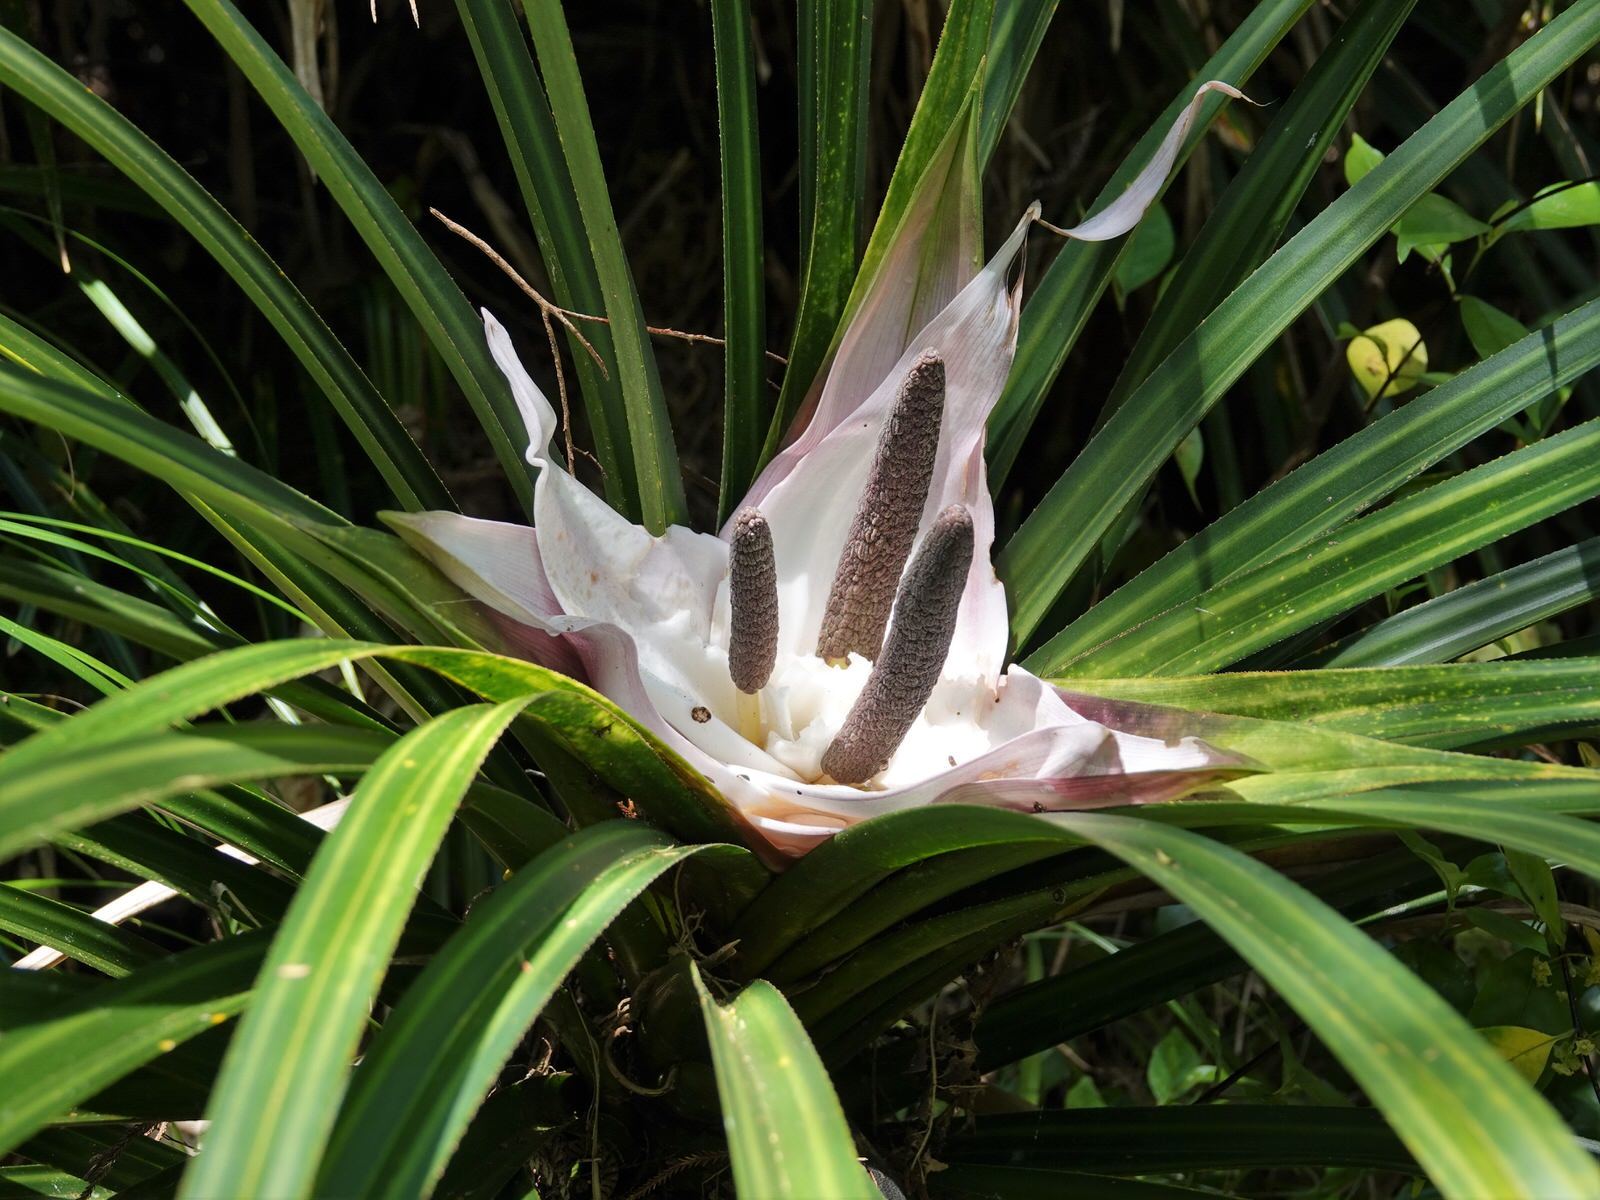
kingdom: Plantae
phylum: Tracheophyta
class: Liliopsida
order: Pandanales
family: Pandanaceae
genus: Freycinetia
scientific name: Freycinetia banksii
